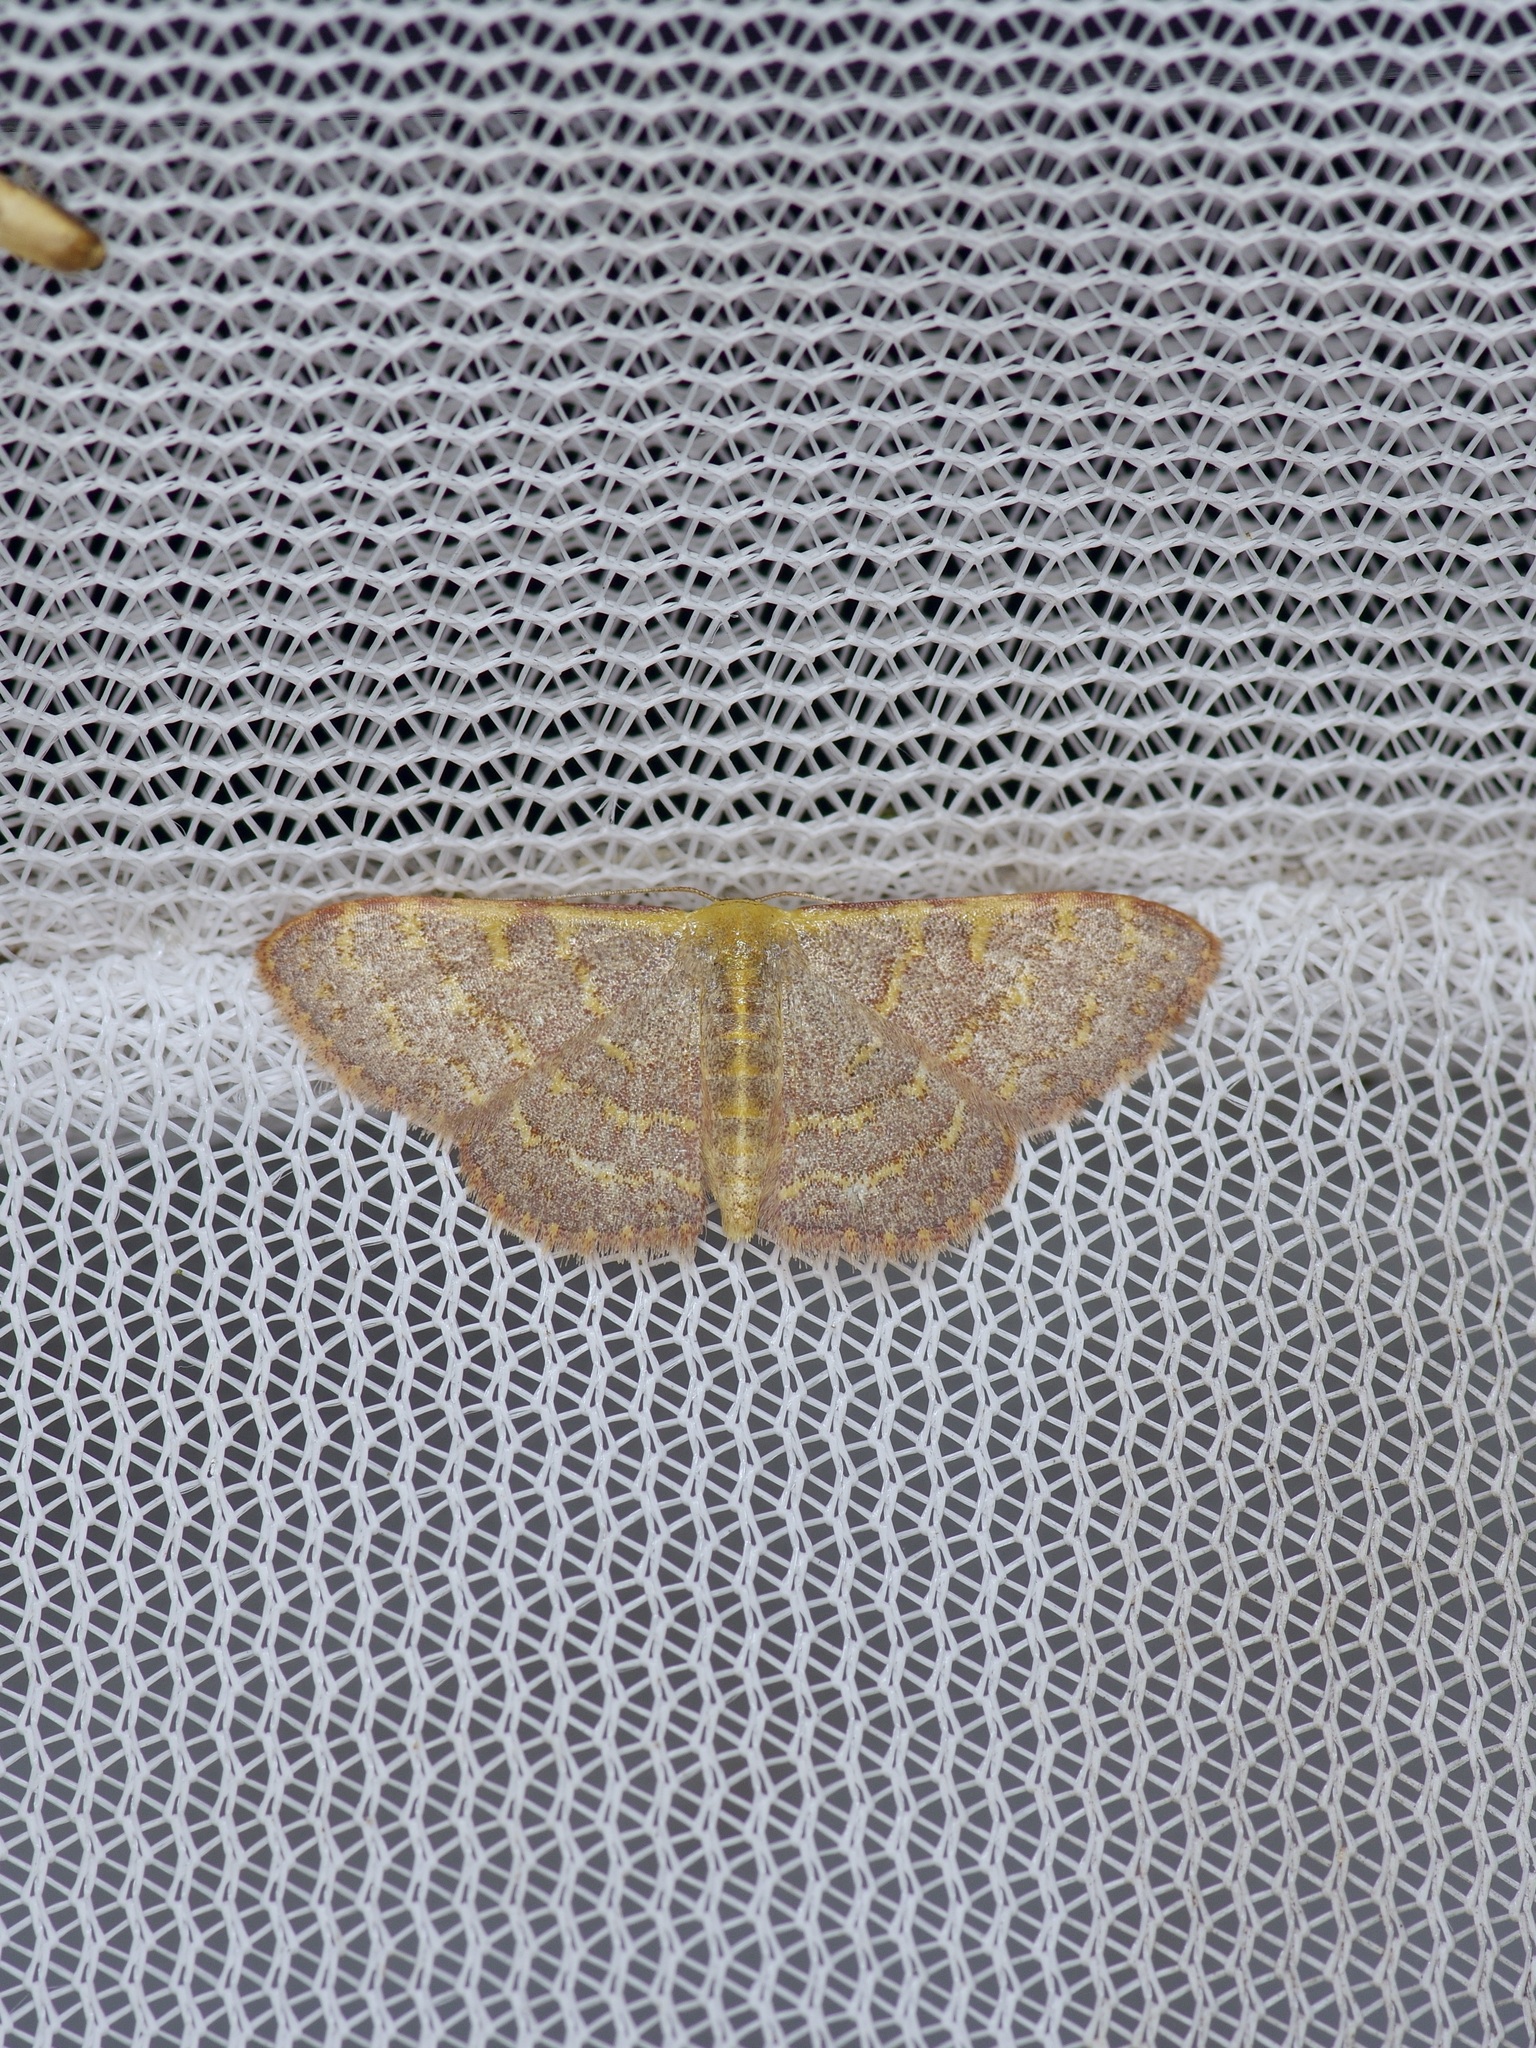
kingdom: Animalia
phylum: Arthropoda
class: Insecta
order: Lepidoptera
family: Geometridae
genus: Leptostales
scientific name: Leptostales pannaria
